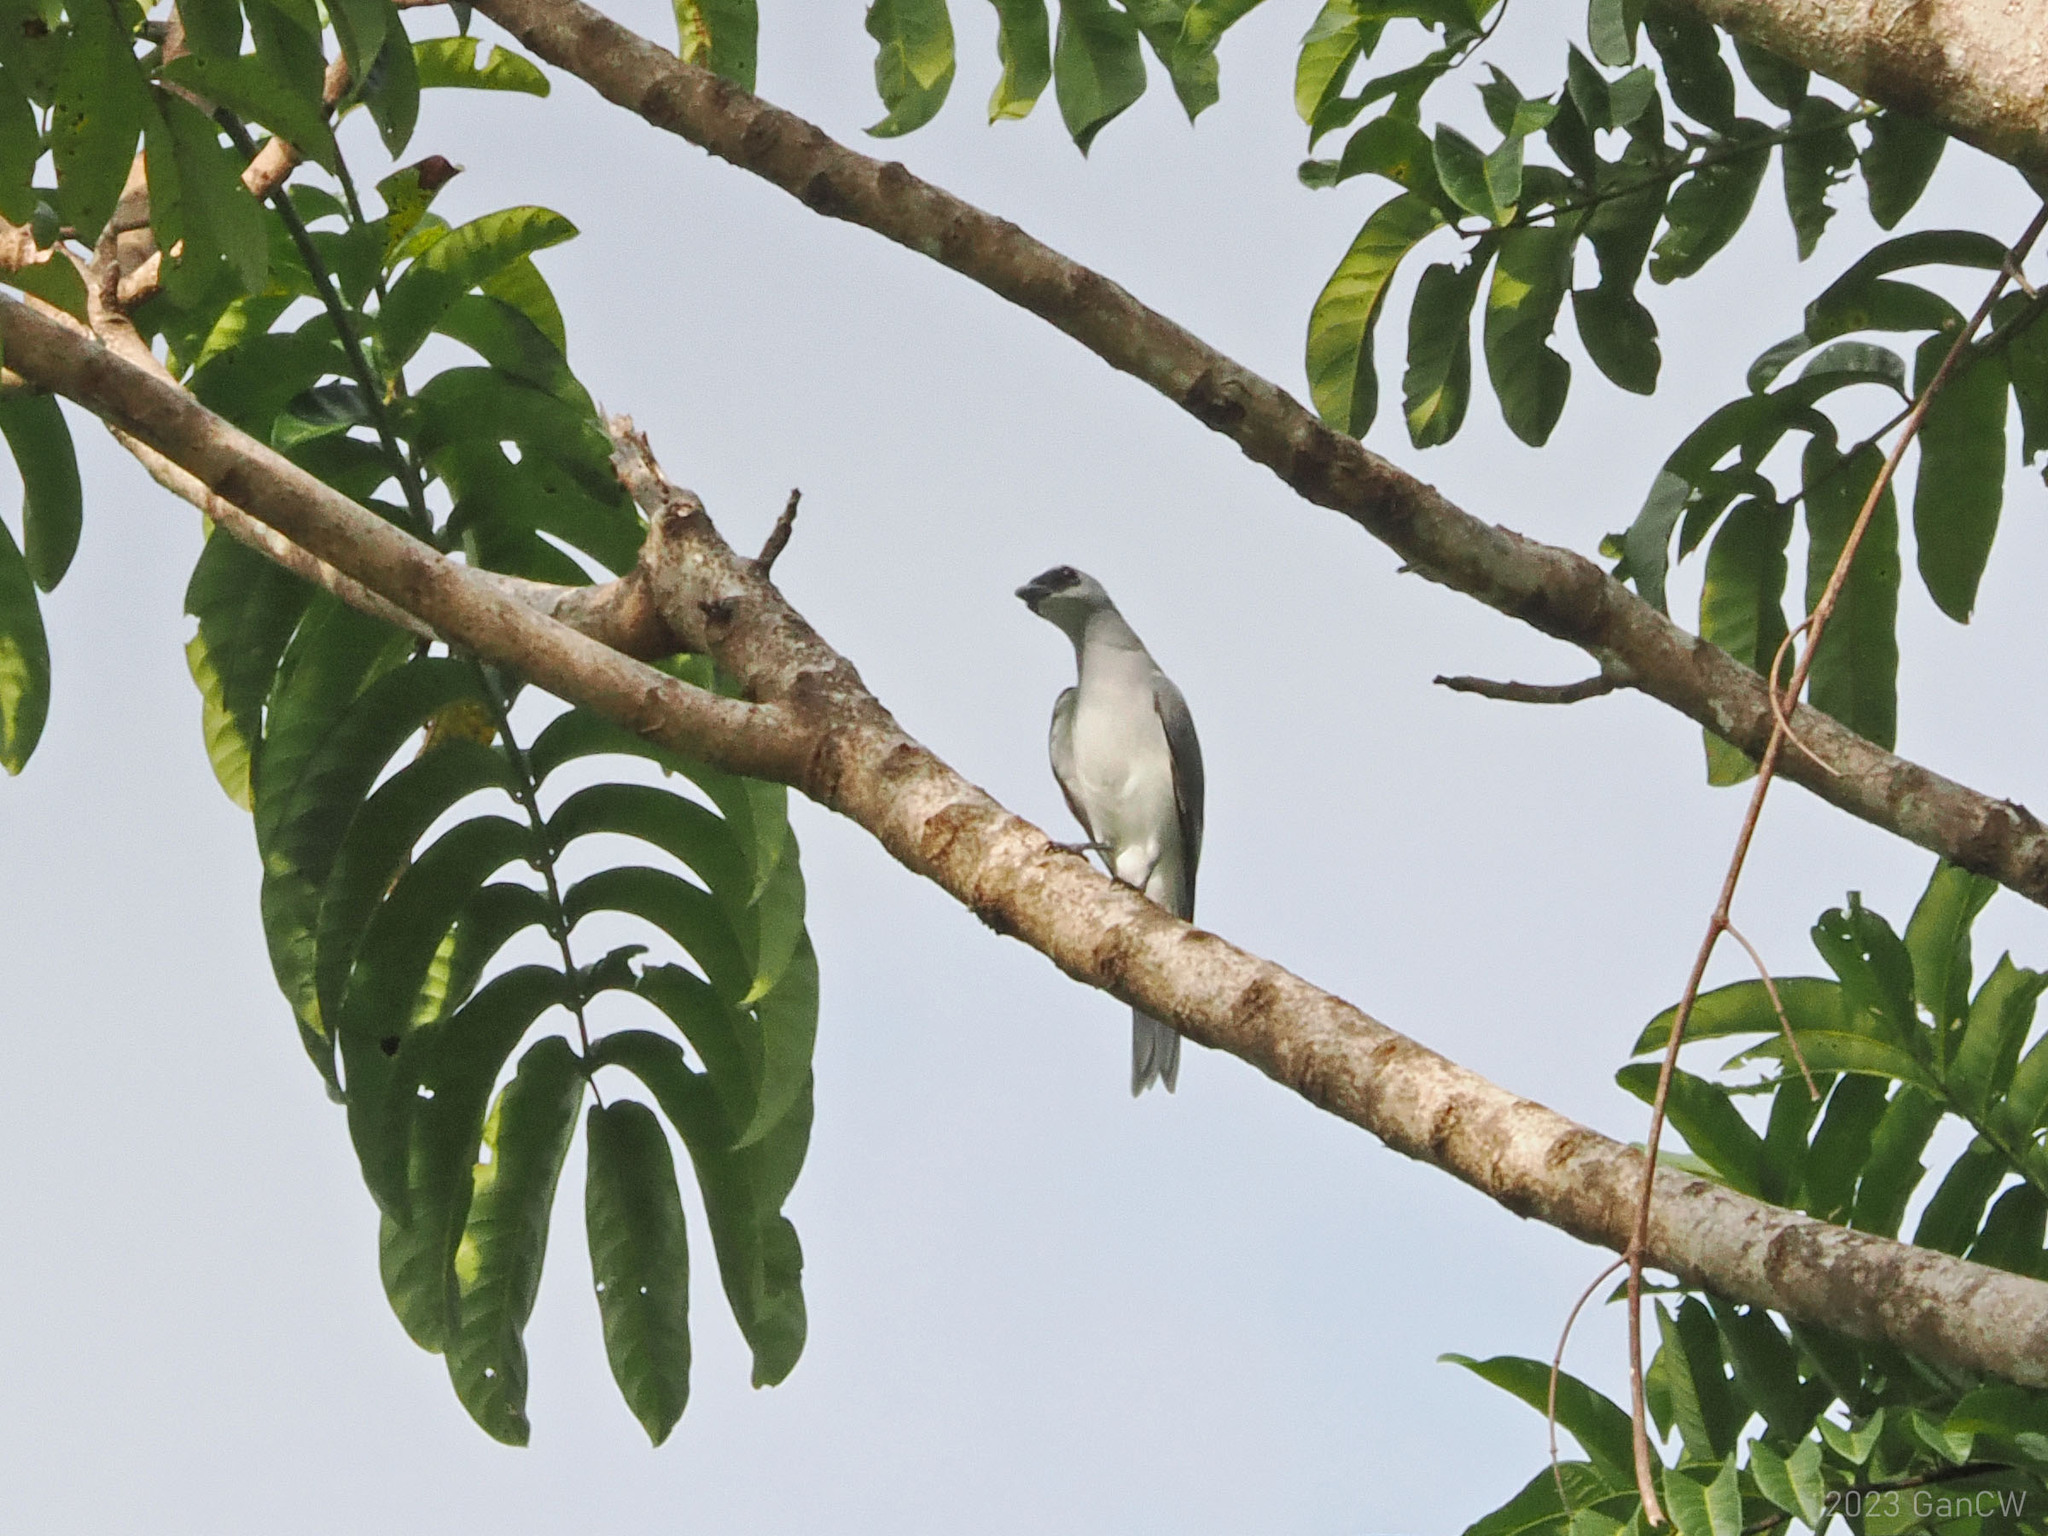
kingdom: Animalia
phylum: Chordata
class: Aves
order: Passeriformes
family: Campephagidae
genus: Coracina
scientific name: Coracina papuensis
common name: White-bellied cuckooshrike
